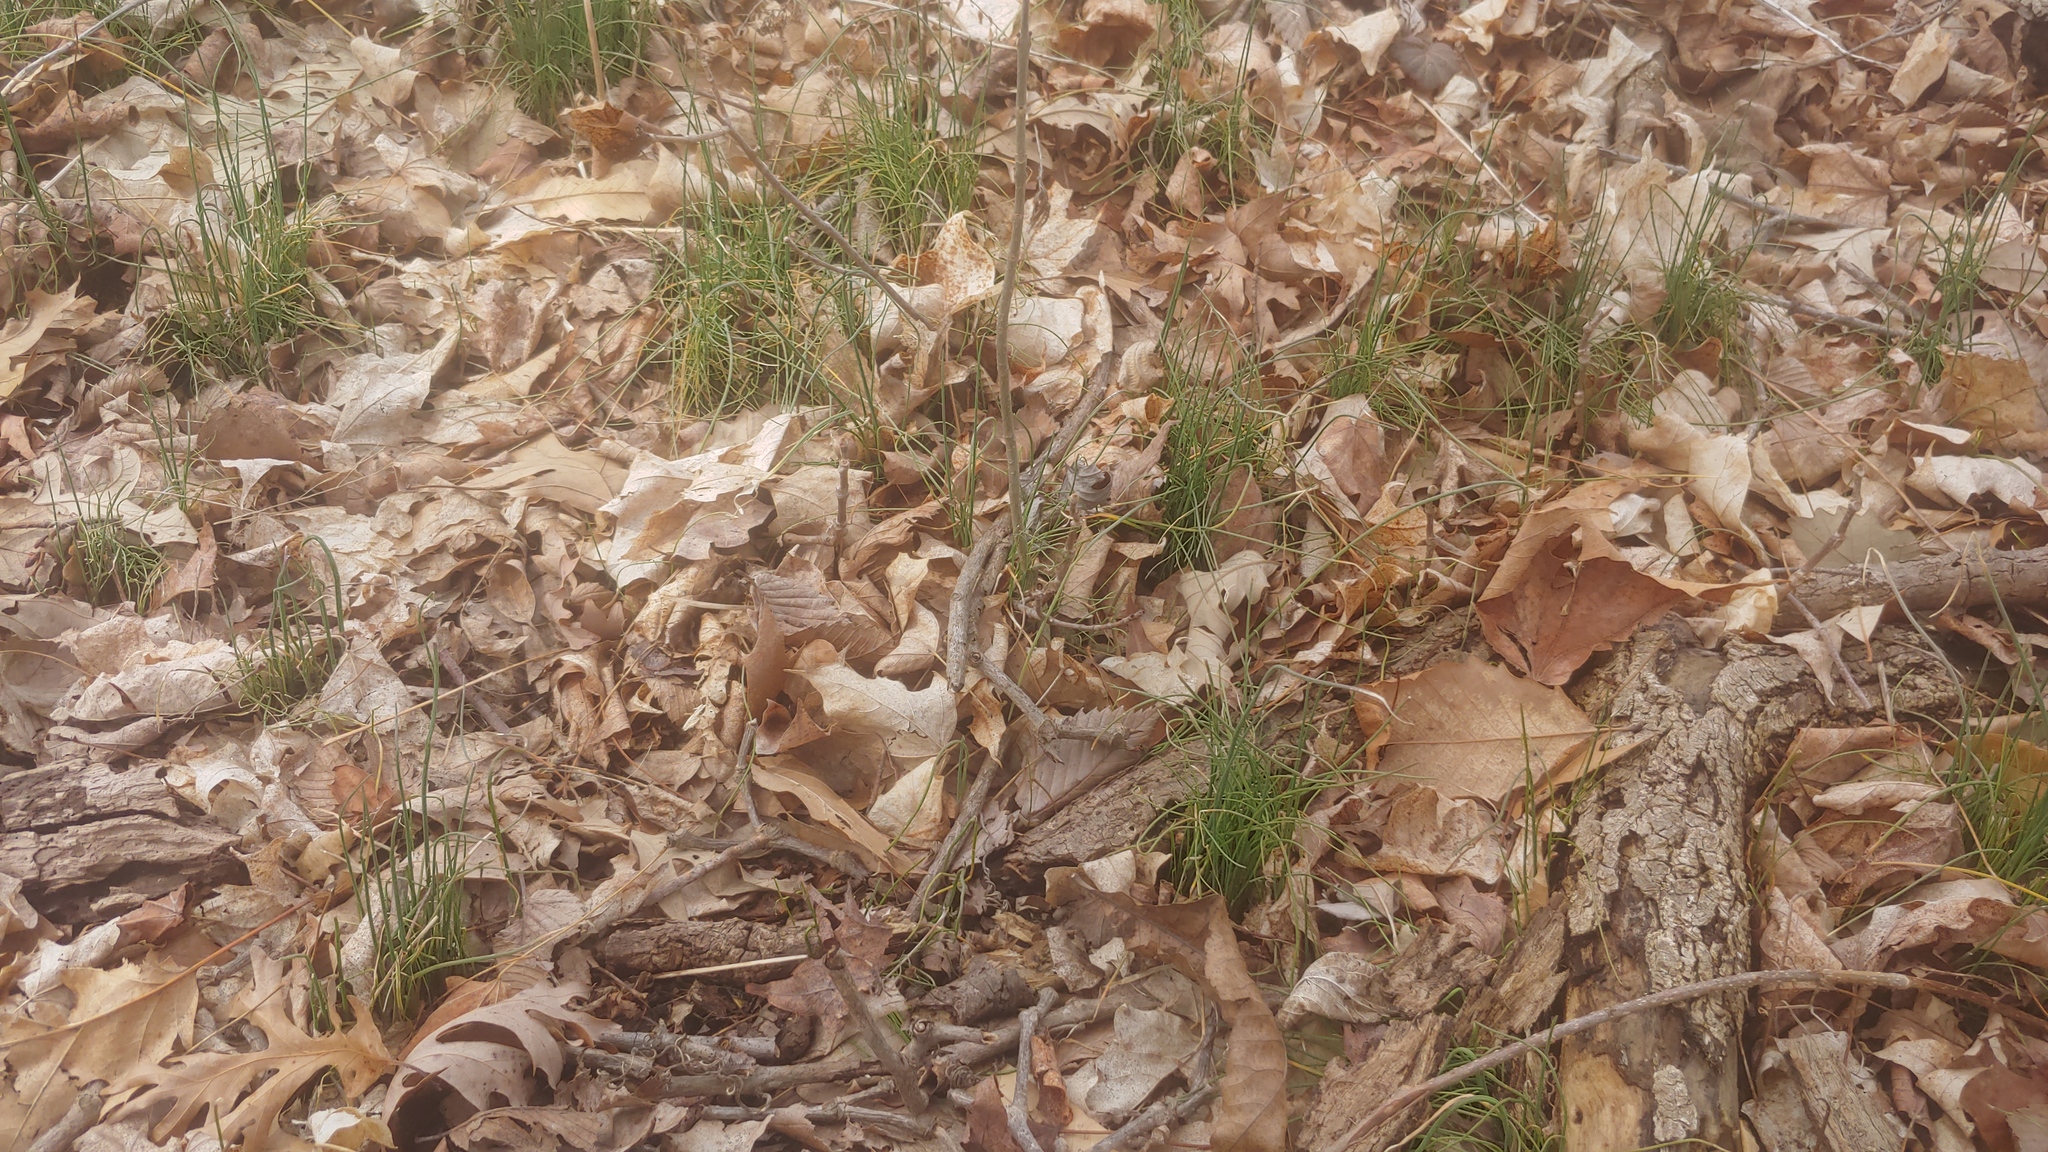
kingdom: Plantae
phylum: Tracheophyta
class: Liliopsida
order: Asparagales
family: Amaryllidaceae
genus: Allium
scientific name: Allium vineale
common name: Crow garlic
